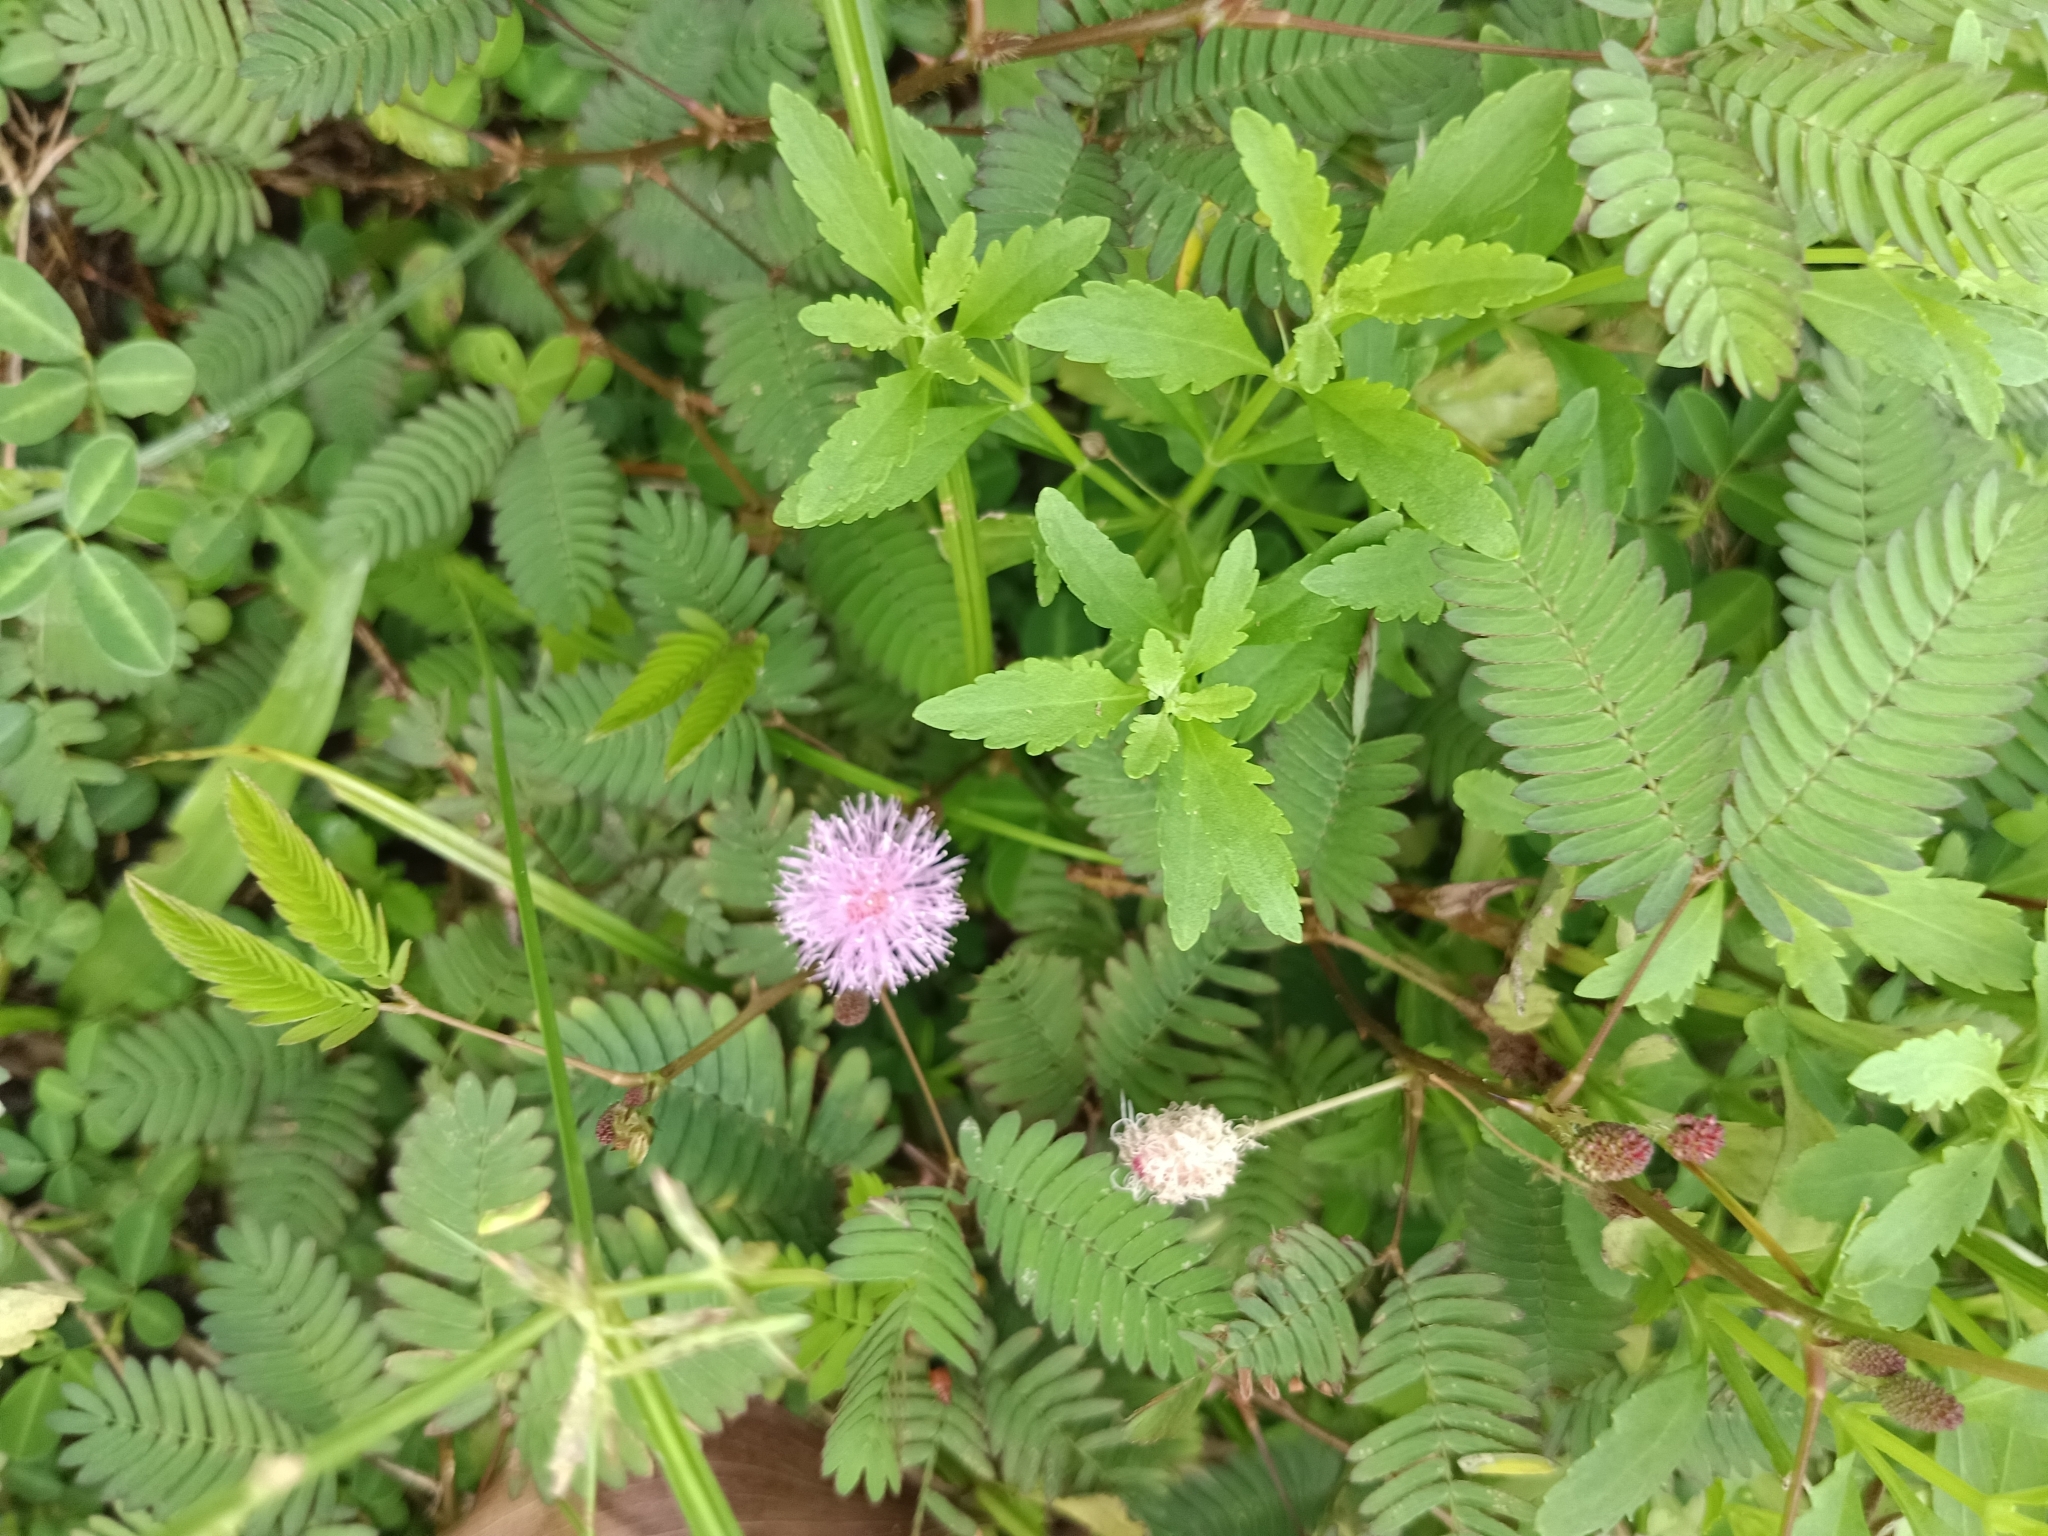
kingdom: Plantae
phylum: Tracheophyta
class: Magnoliopsida
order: Fabales
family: Fabaceae
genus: Mimosa
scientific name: Mimosa pudica
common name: Sensitive plant
